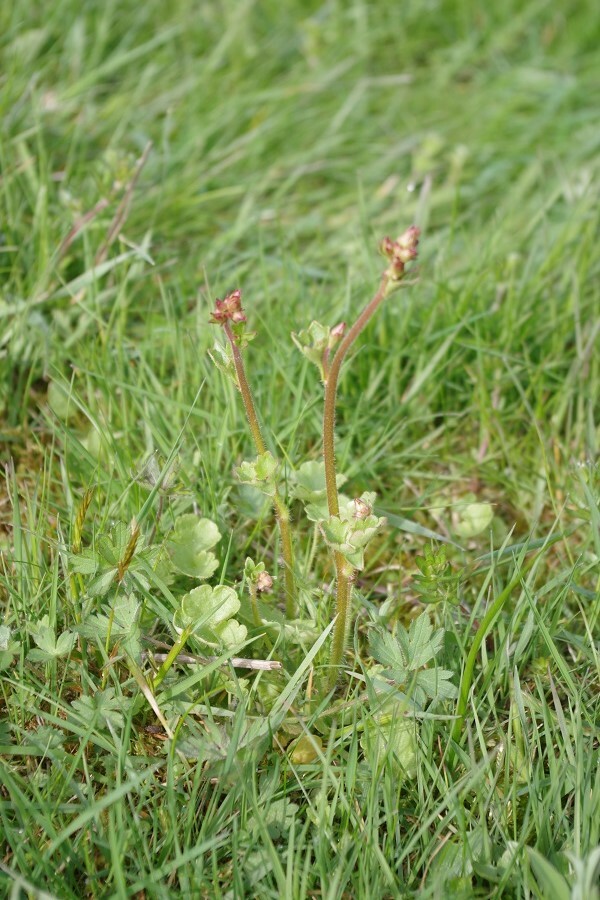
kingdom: Plantae
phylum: Tracheophyta
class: Magnoliopsida
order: Saxifragales
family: Saxifragaceae
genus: Saxifraga
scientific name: Saxifraga granulata
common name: Meadow saxifrage
